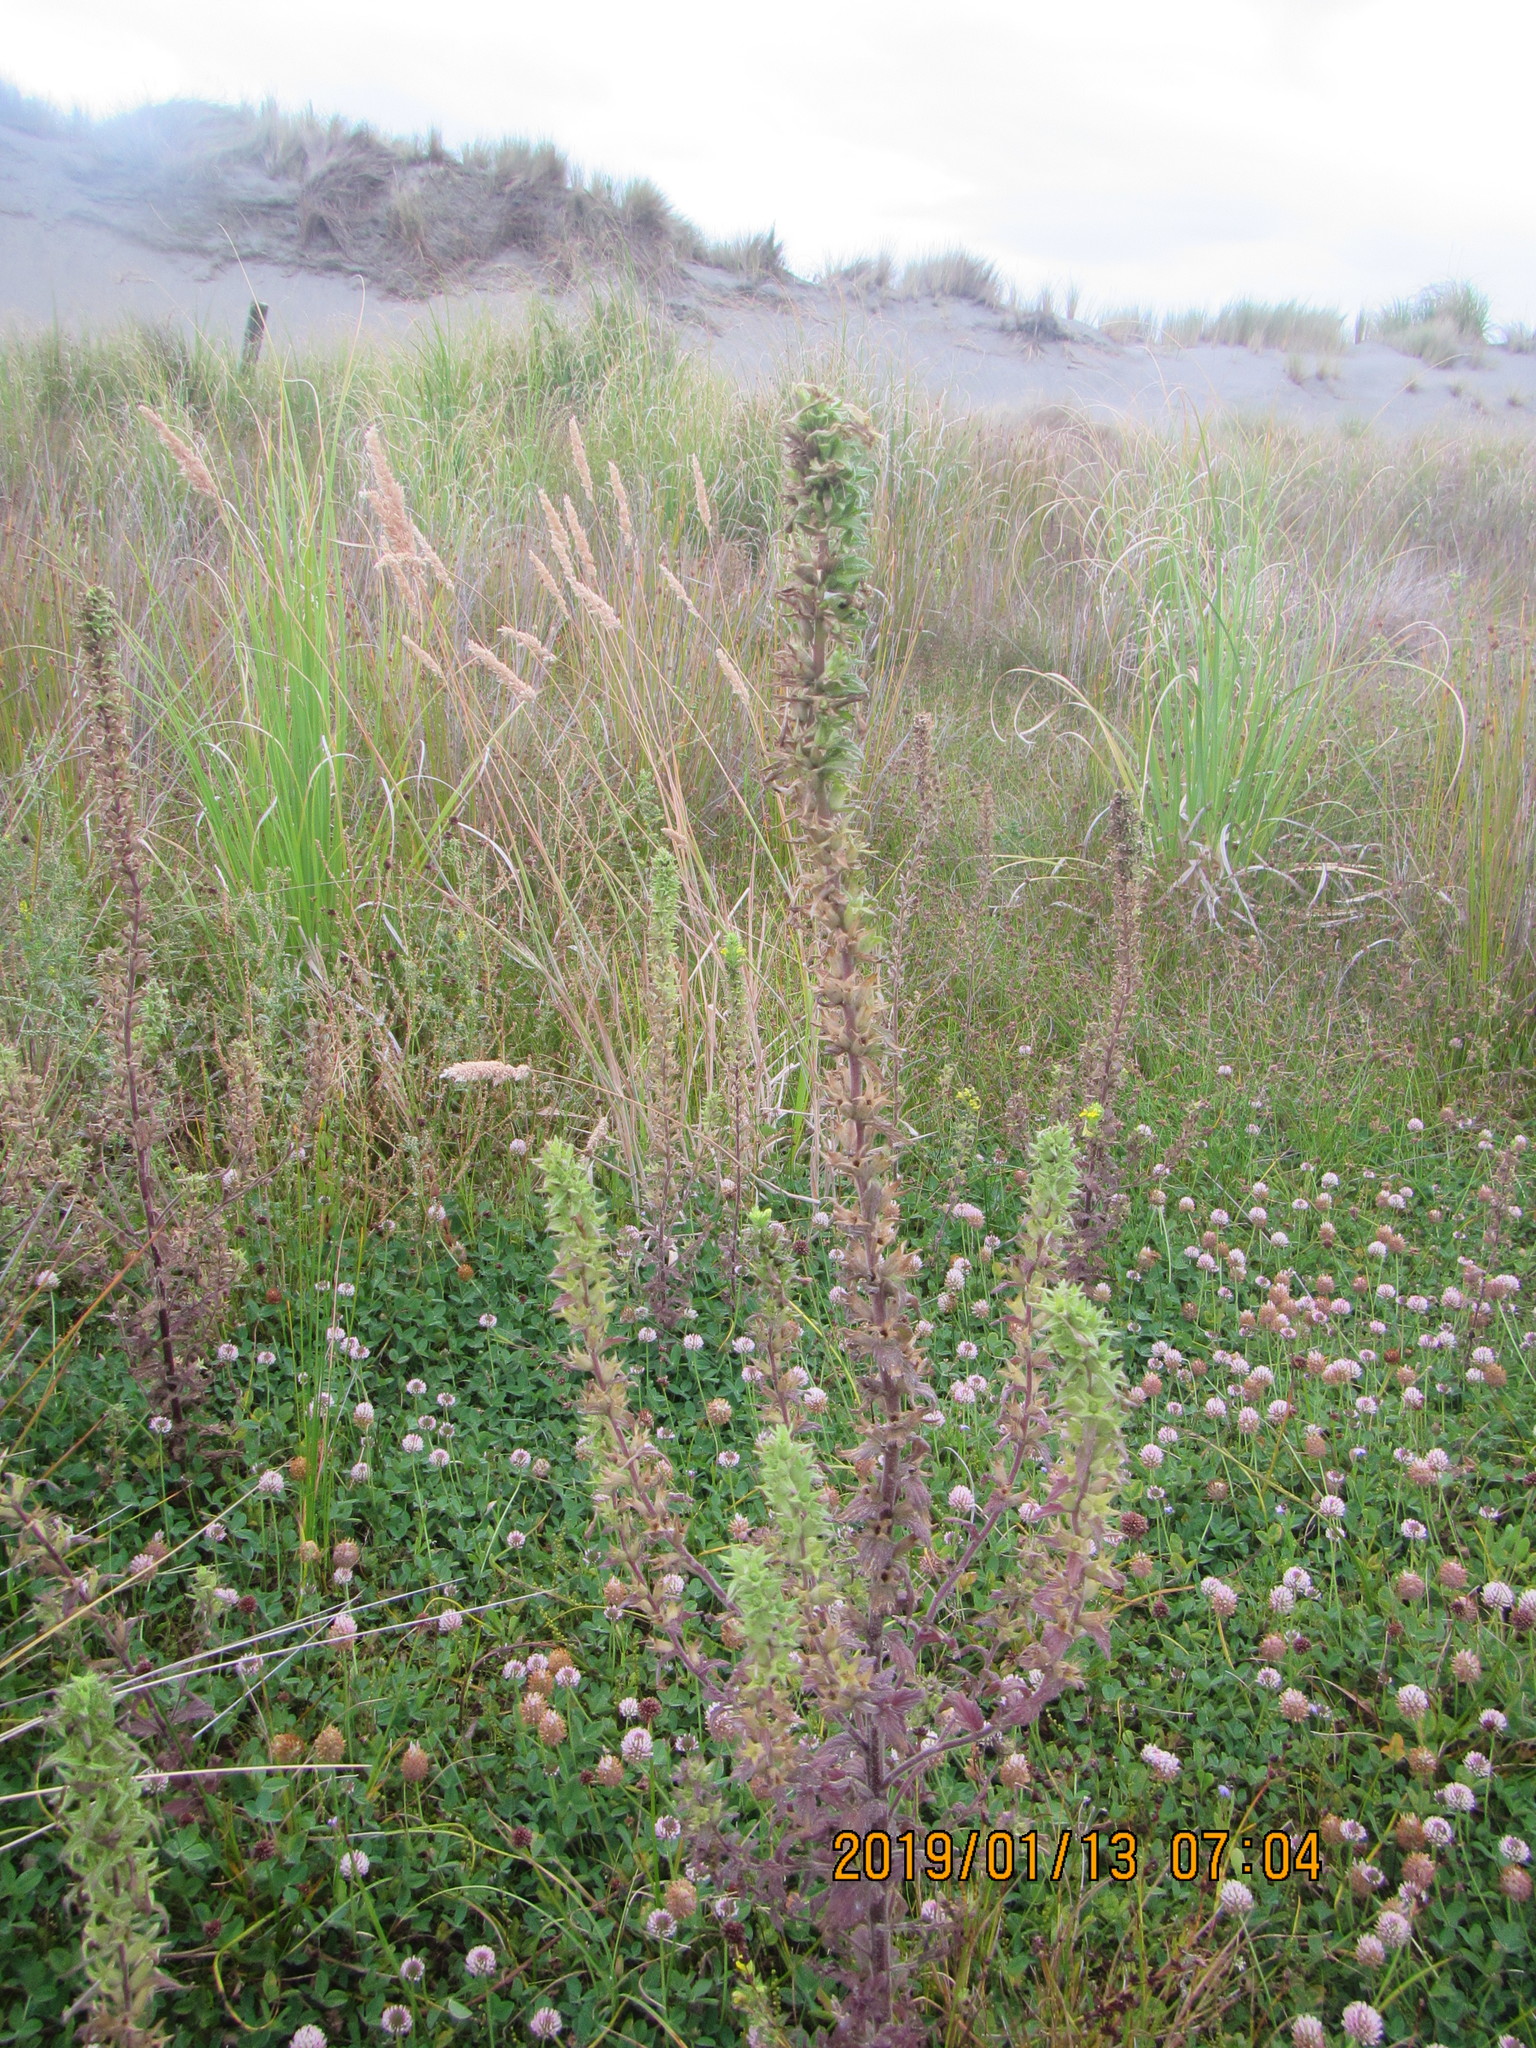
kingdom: Plantae
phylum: Tracheophyta
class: Magnoliopsida
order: Lamiales
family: Orobanchaceae
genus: Bellardia
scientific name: Bellardia viscosa
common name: Sticky parentucellia
